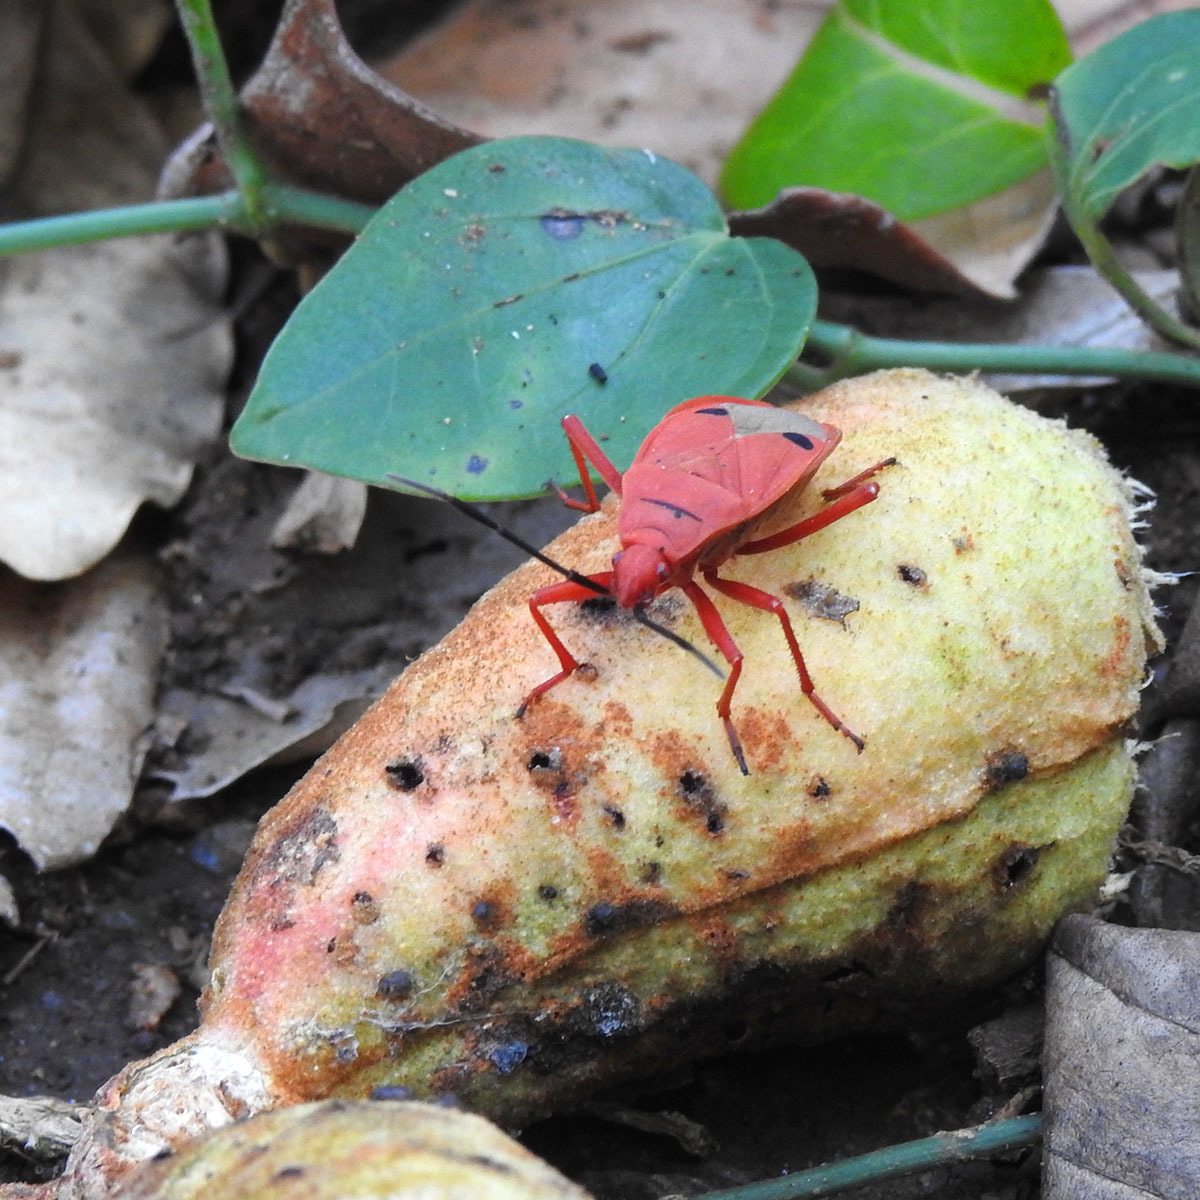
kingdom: Animalia
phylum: Arthropoda
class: Insecta
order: Hemiptera
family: Pyrrhocoridae
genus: Probergrothius
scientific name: Probergrothius nigricornis
